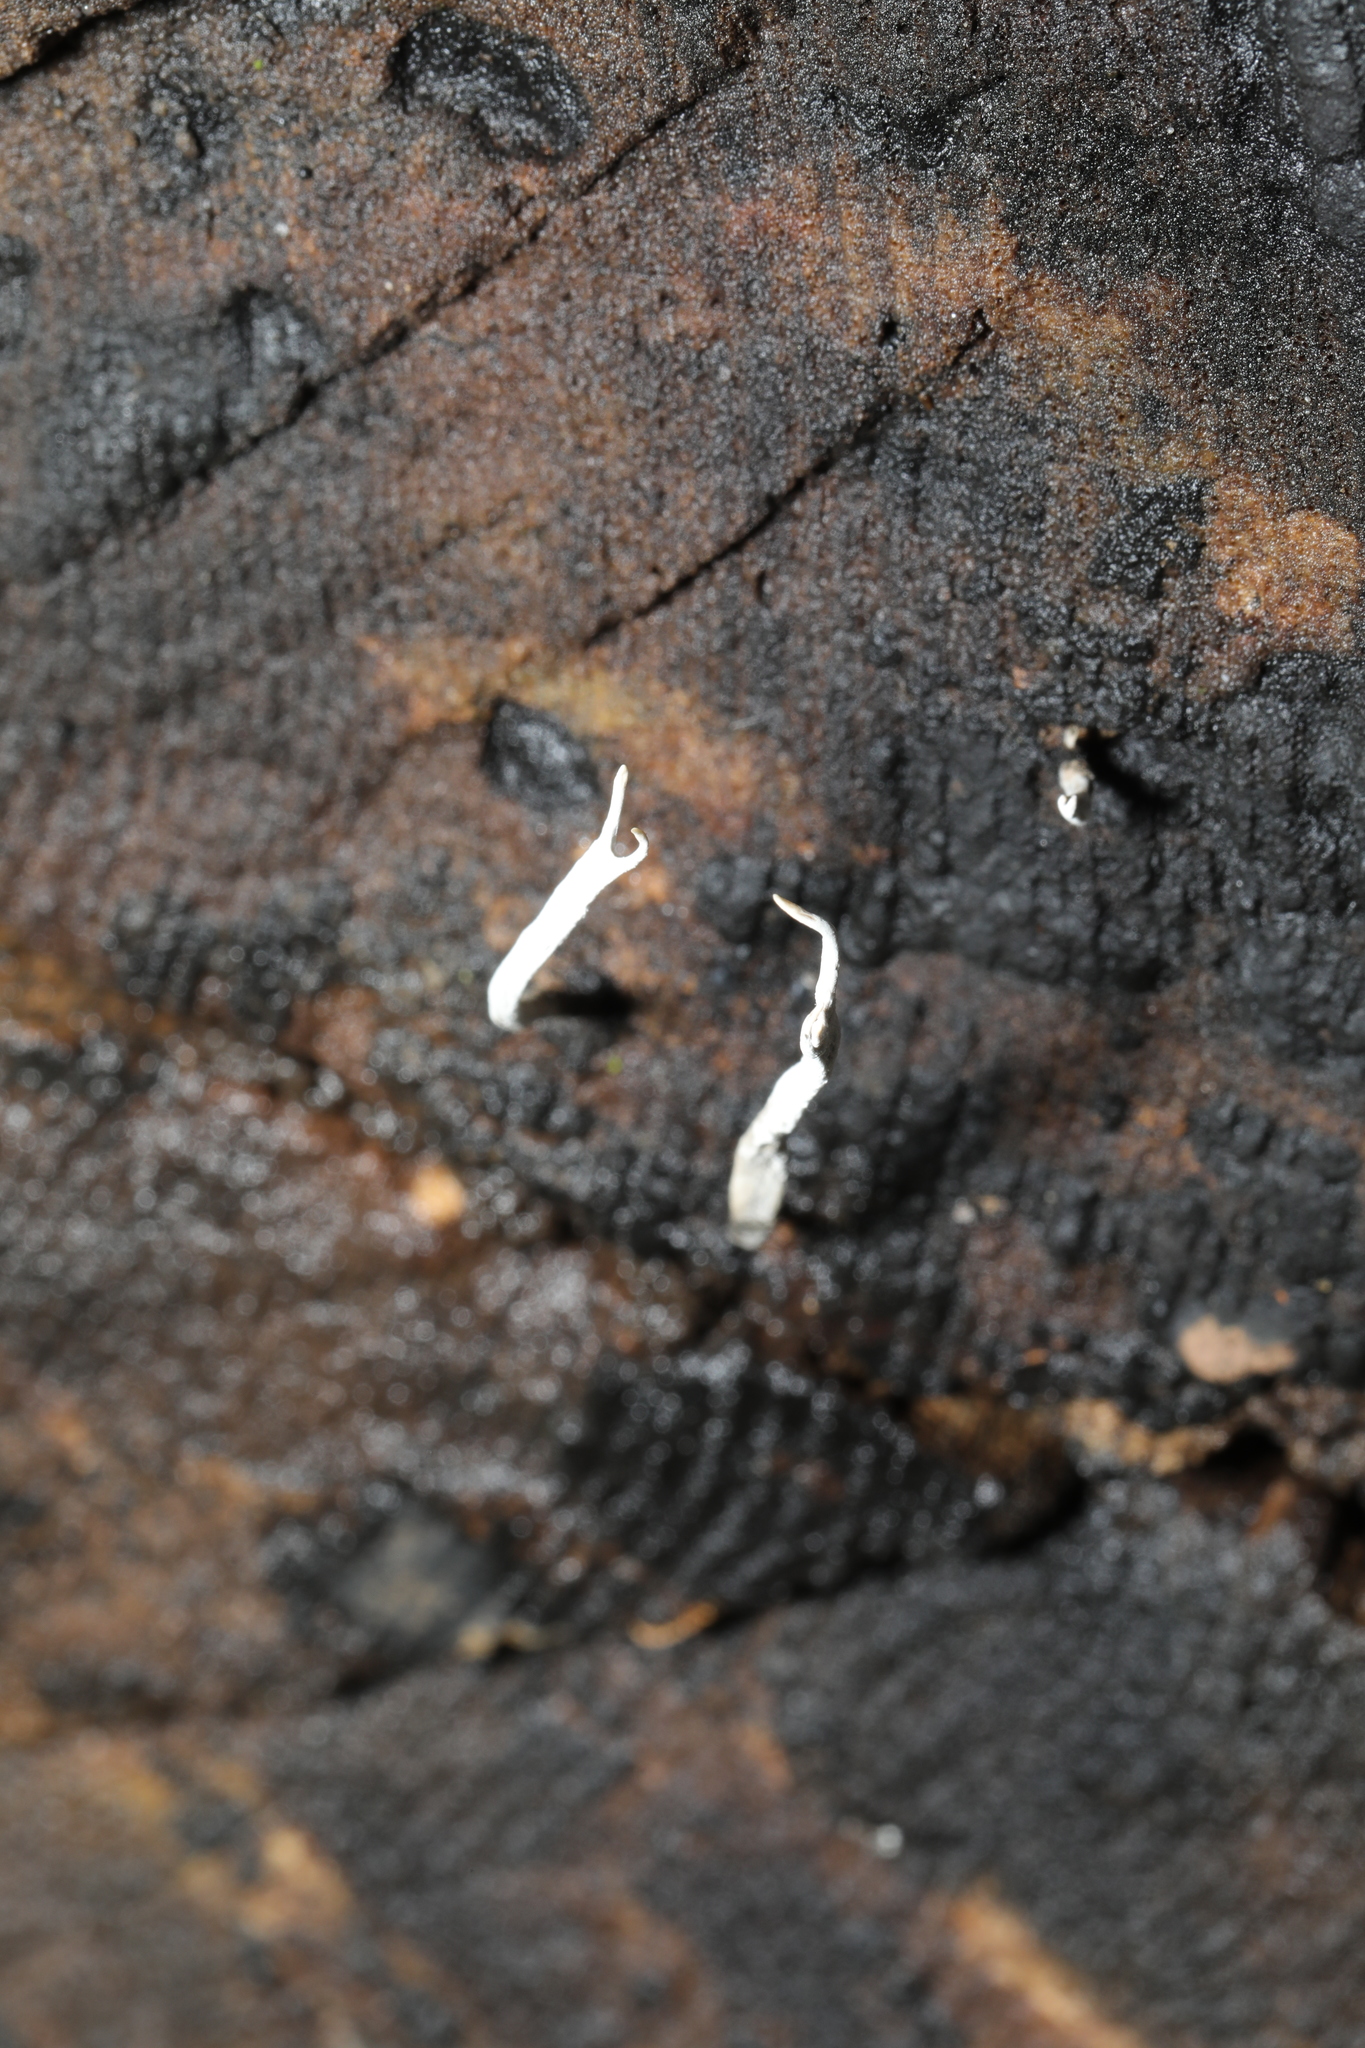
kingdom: Fungi
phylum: Ascomycota
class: Sordariomycetes
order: Xylariales
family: Xylariaceae
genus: Xylaria
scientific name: Xylaria hypoxylon
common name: Candle-snuff fungus
